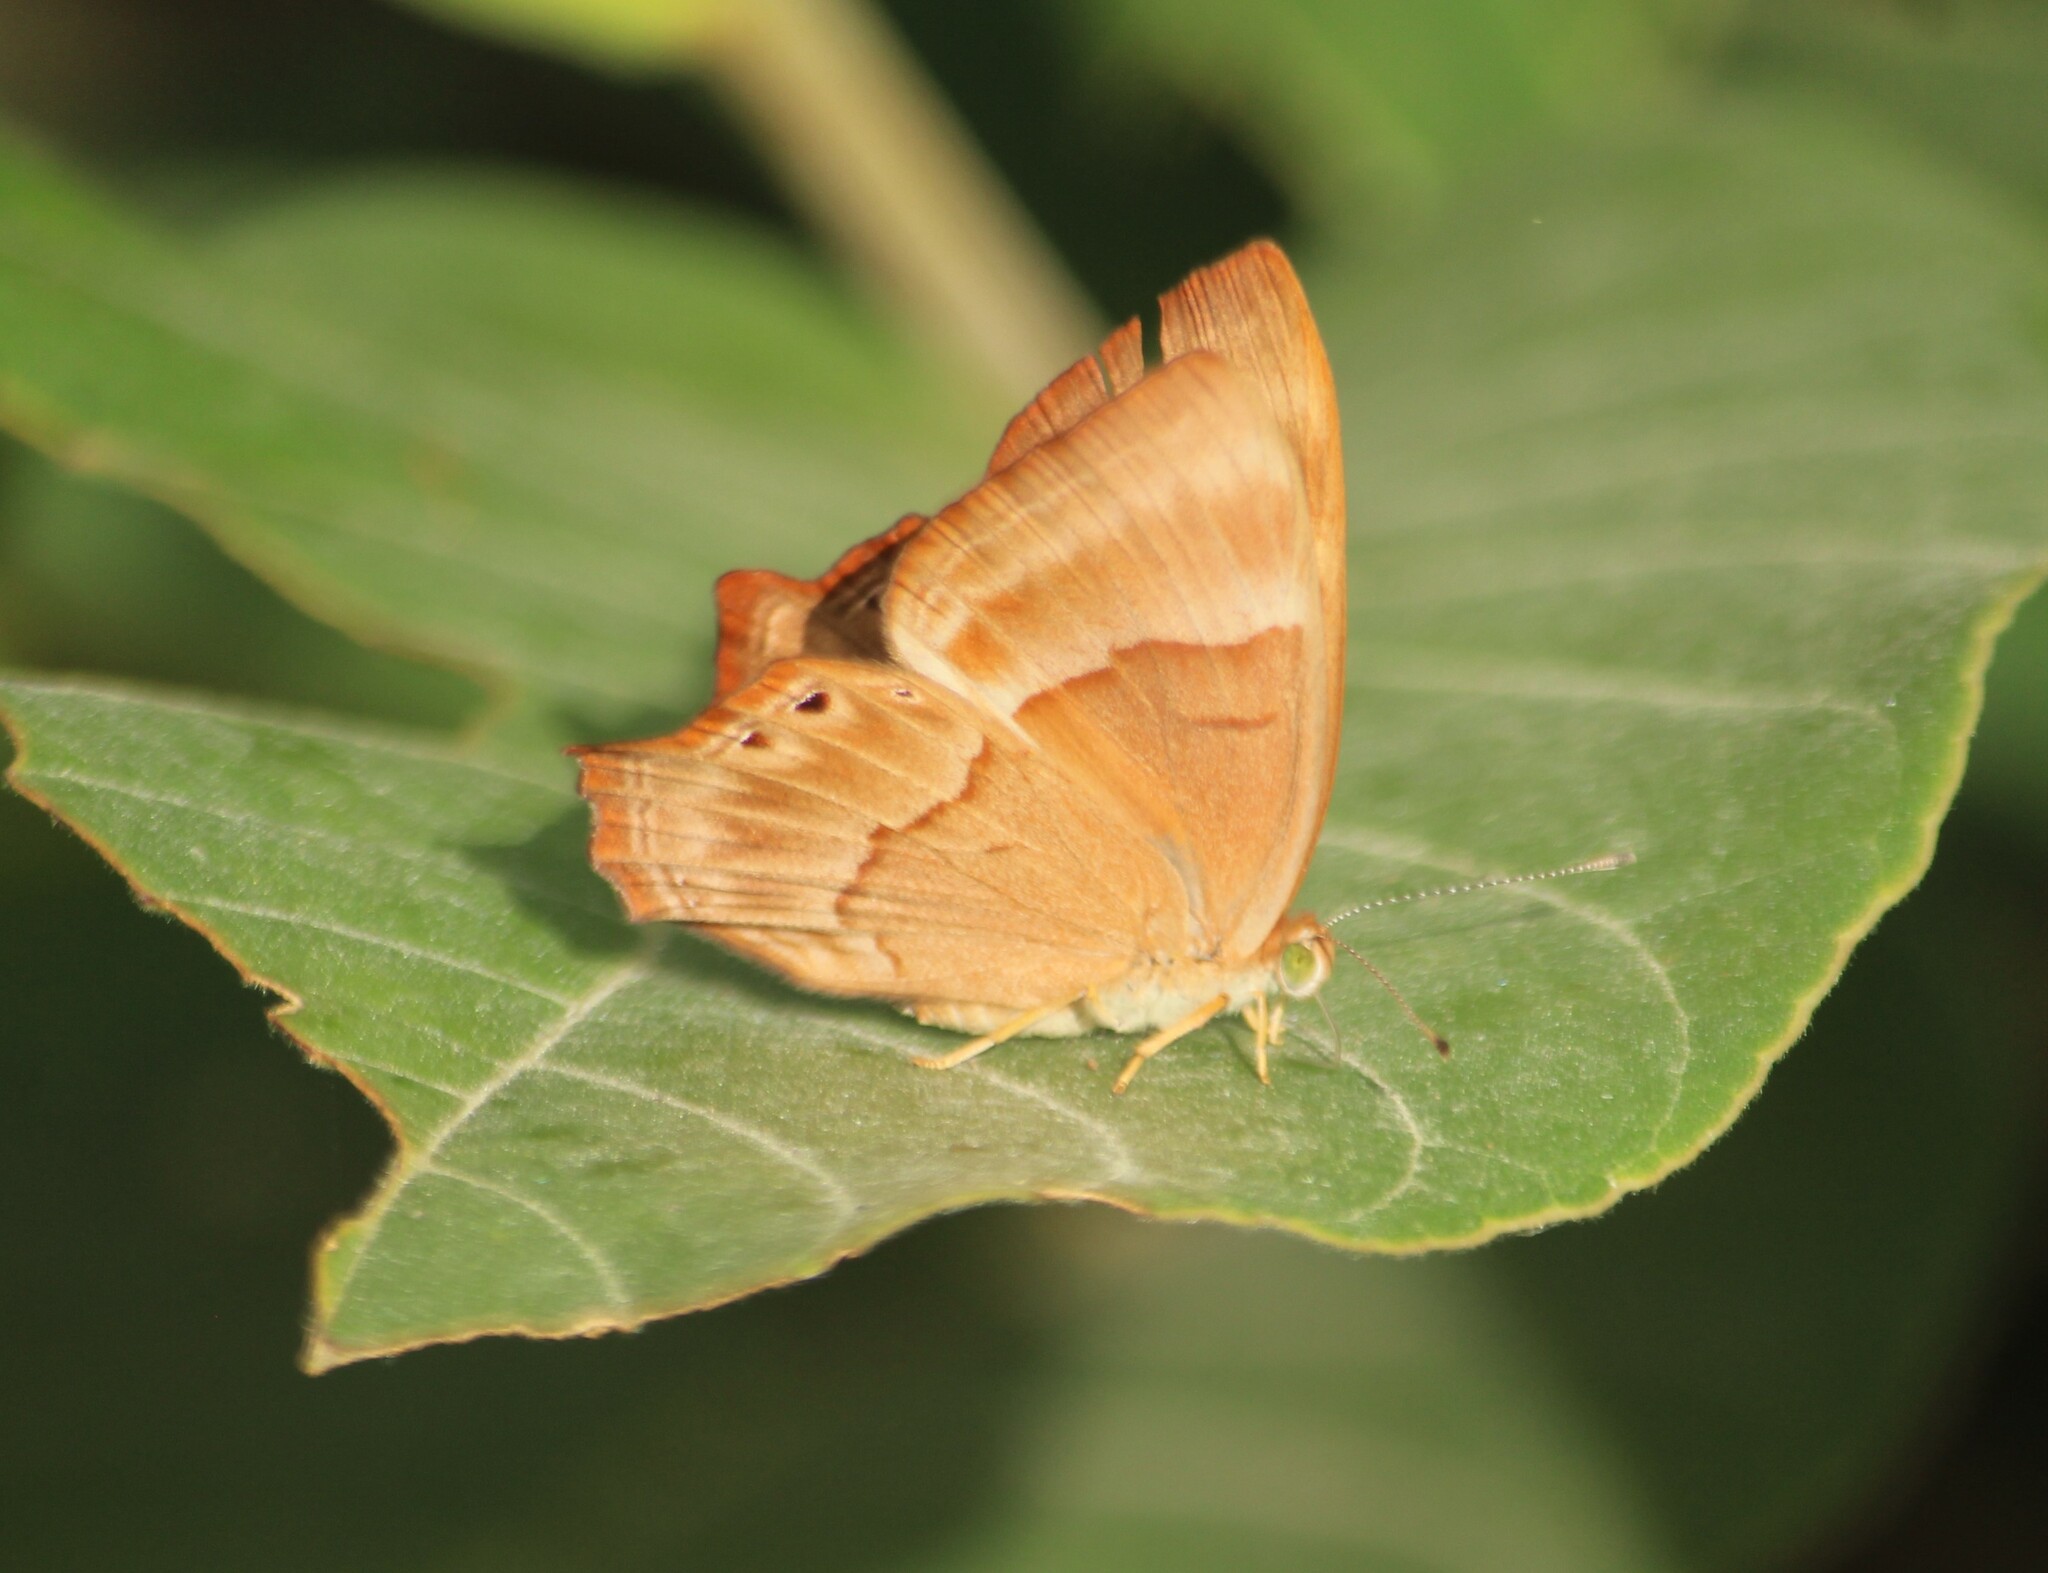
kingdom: Animalia
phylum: Arthropoda
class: Insecta
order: Lepidoptera
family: Lycaenidae
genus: Abisara
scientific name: Abisara bifasciata
